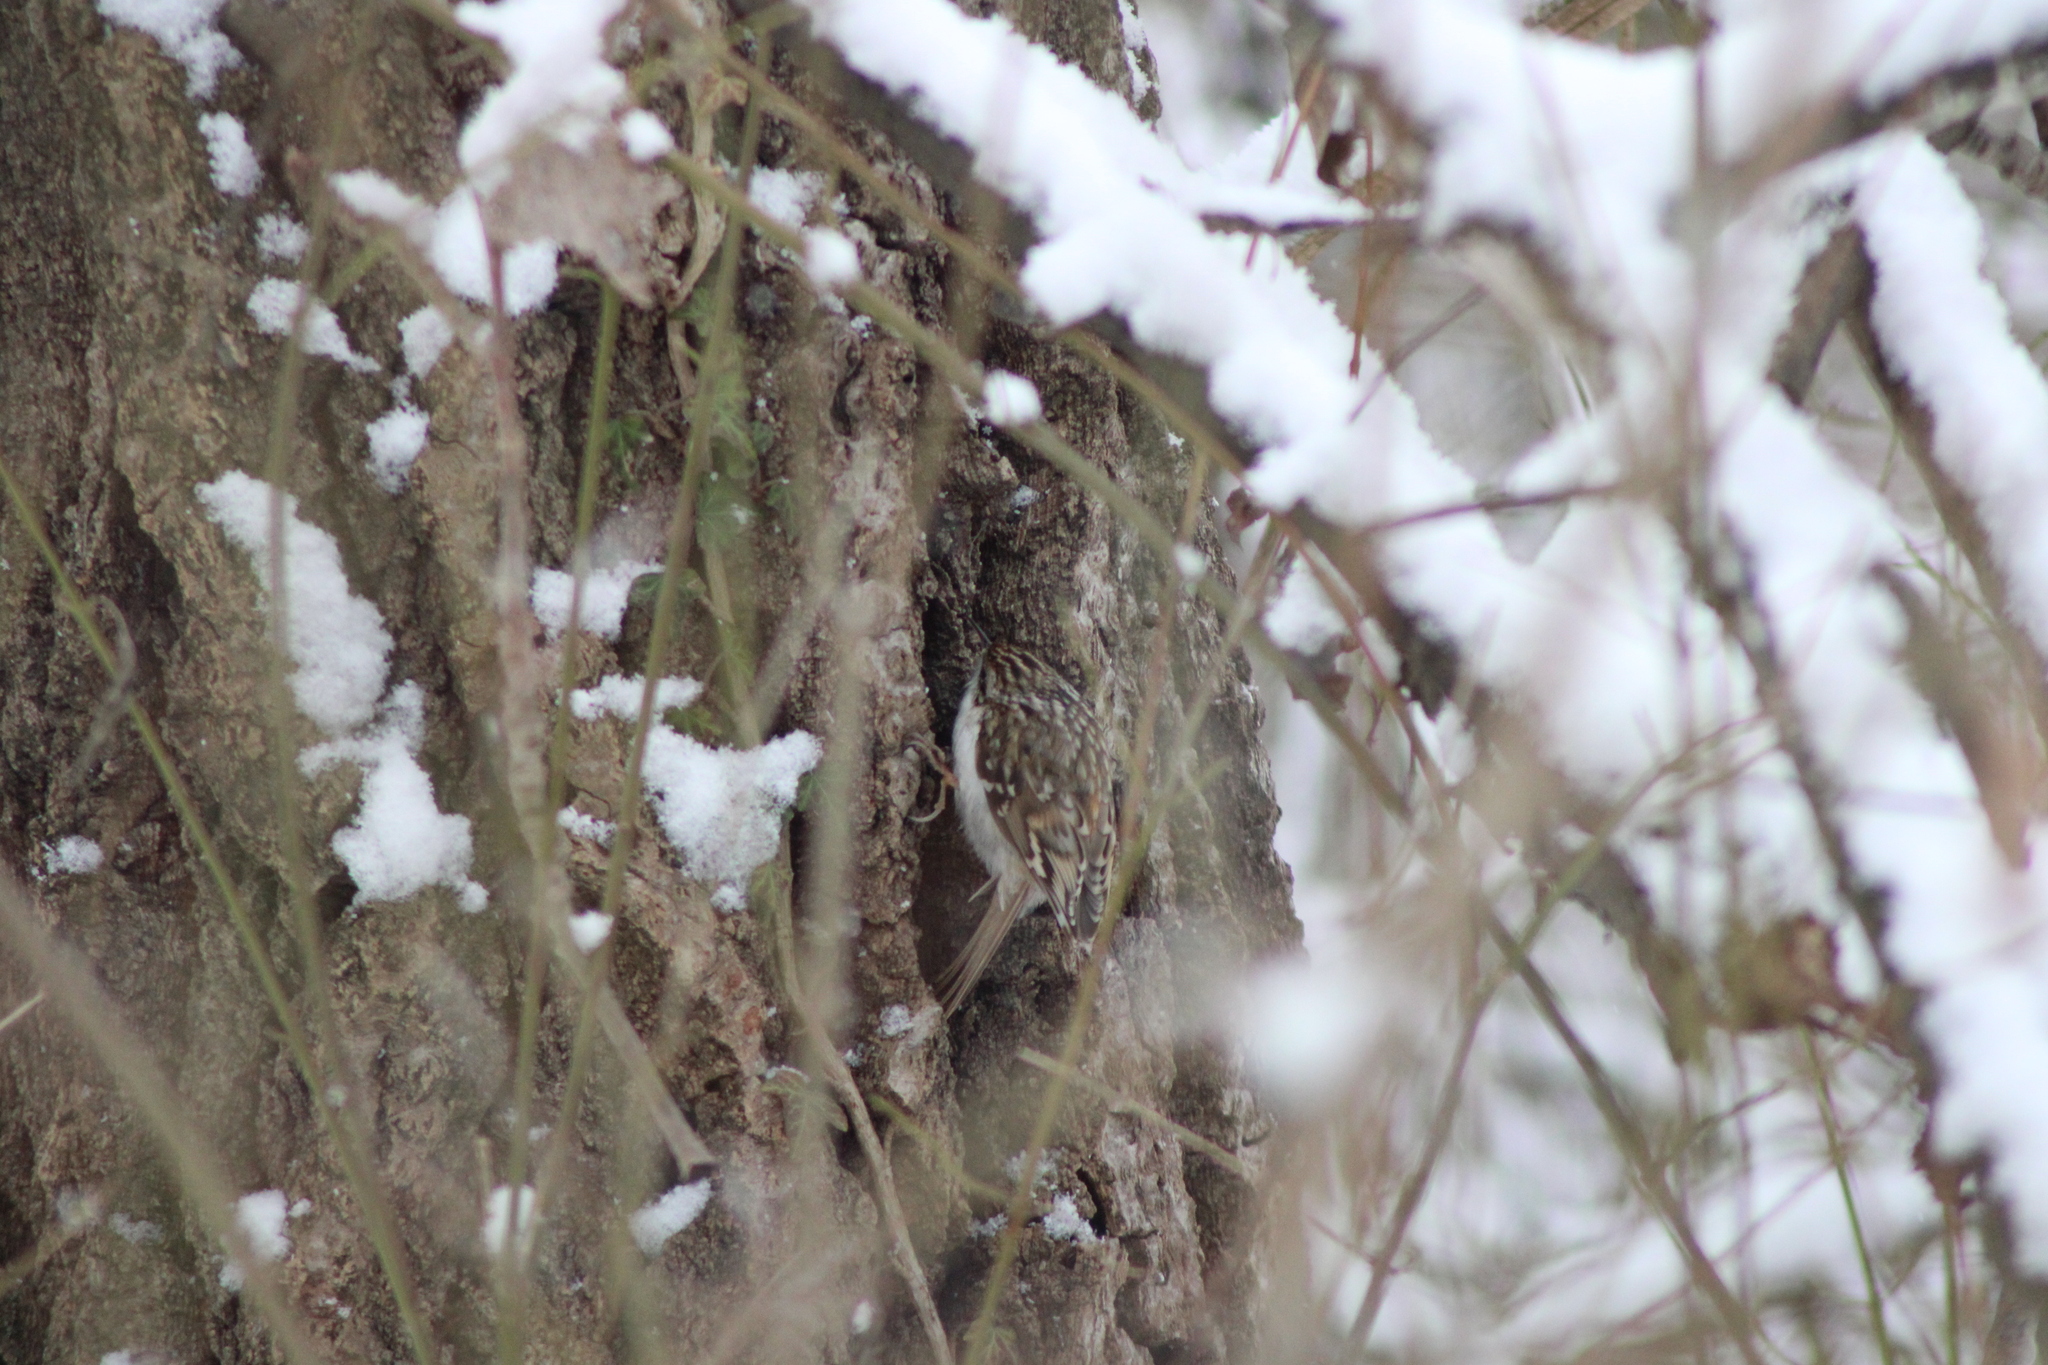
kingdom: Animalia
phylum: Chordata
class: Aves
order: Passeriformes
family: Certhiidae
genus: Certhia
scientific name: Certhia familiaris
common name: Eurasian treecreeper
